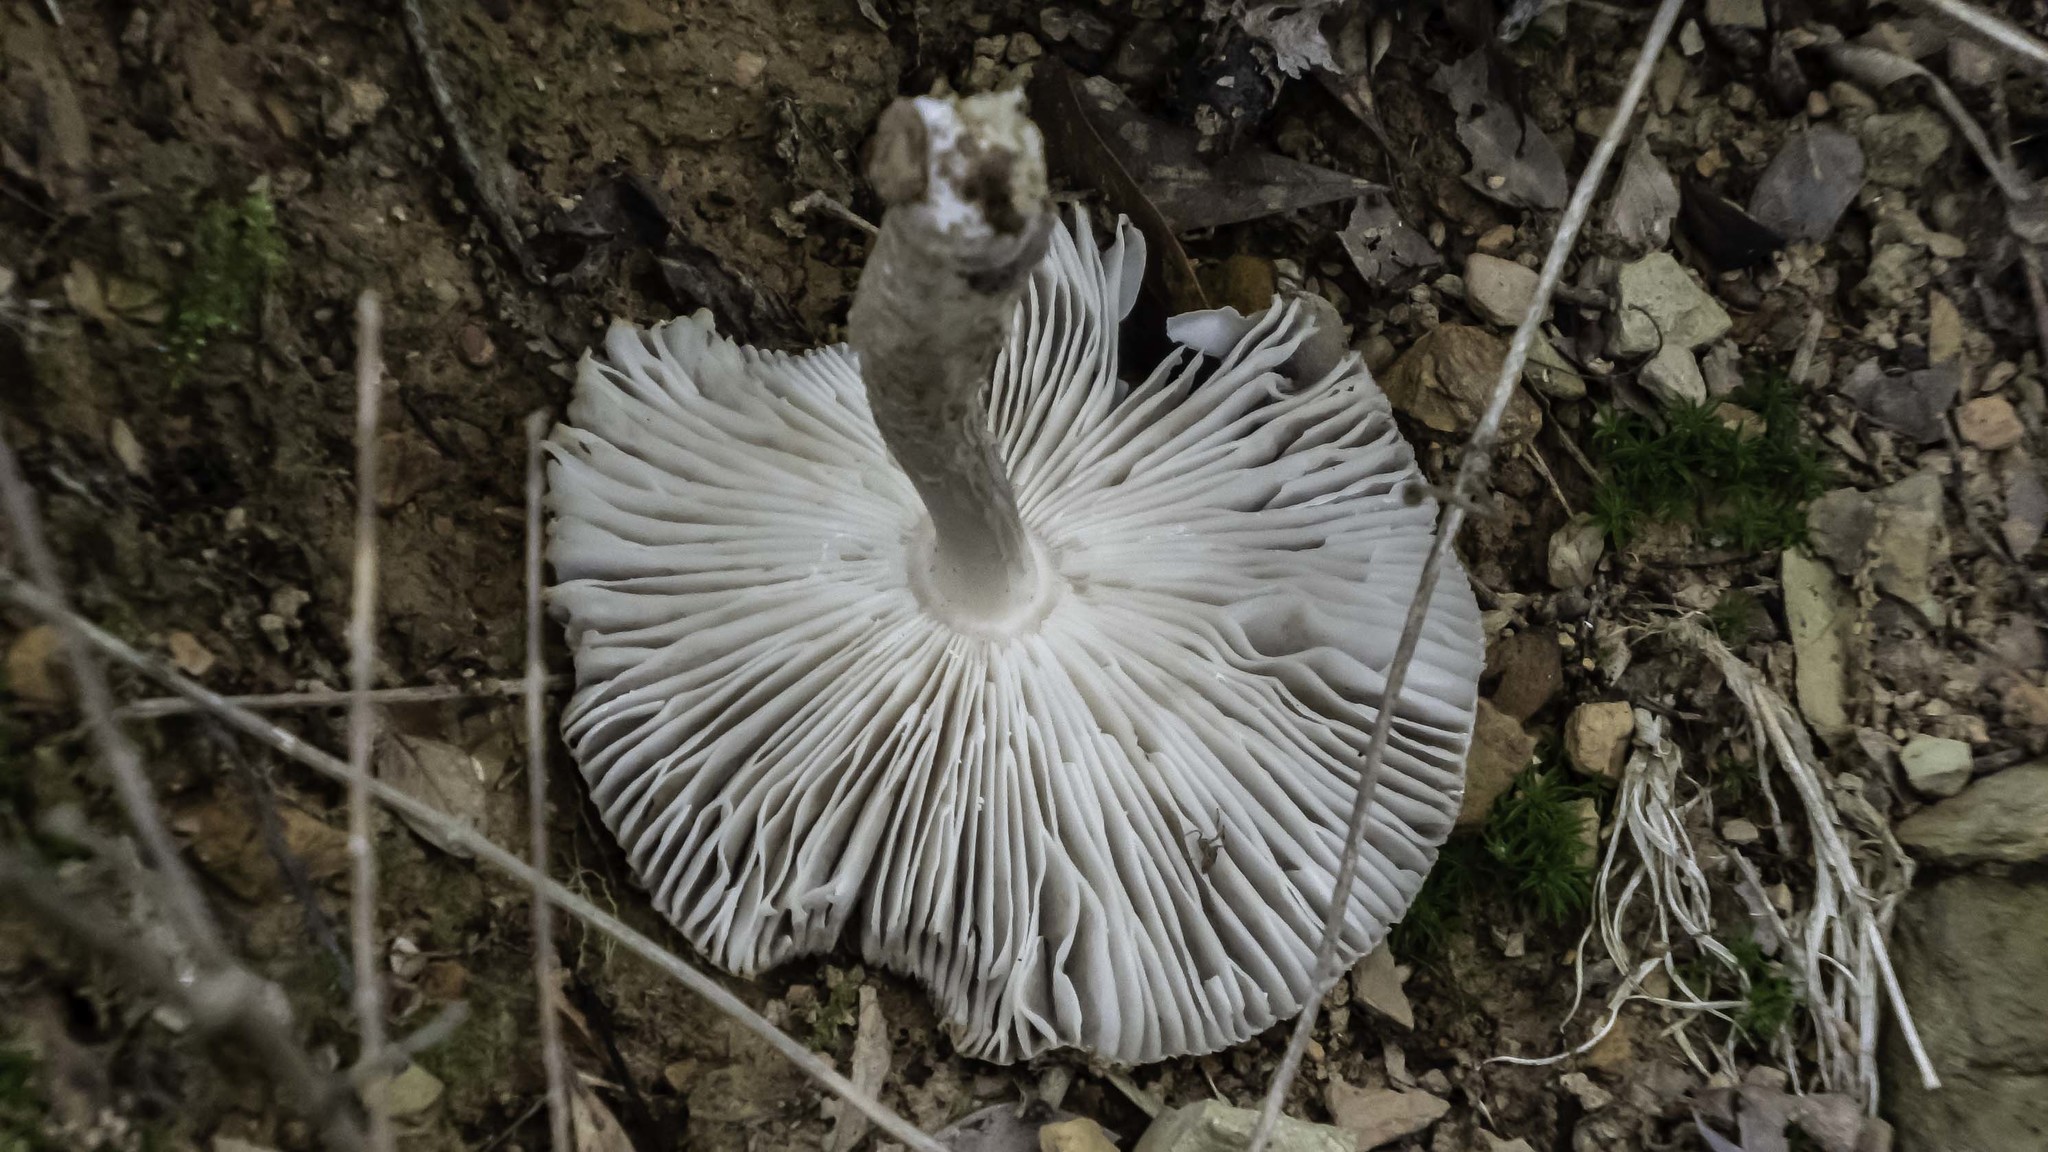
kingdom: Fungi
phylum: Basidiomycota
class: Agaricomycetes
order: Agaricales
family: Tricholomataceae
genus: Megacollybia
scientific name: Megacollybia rodmanii
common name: Eastern american platterful mushroom
